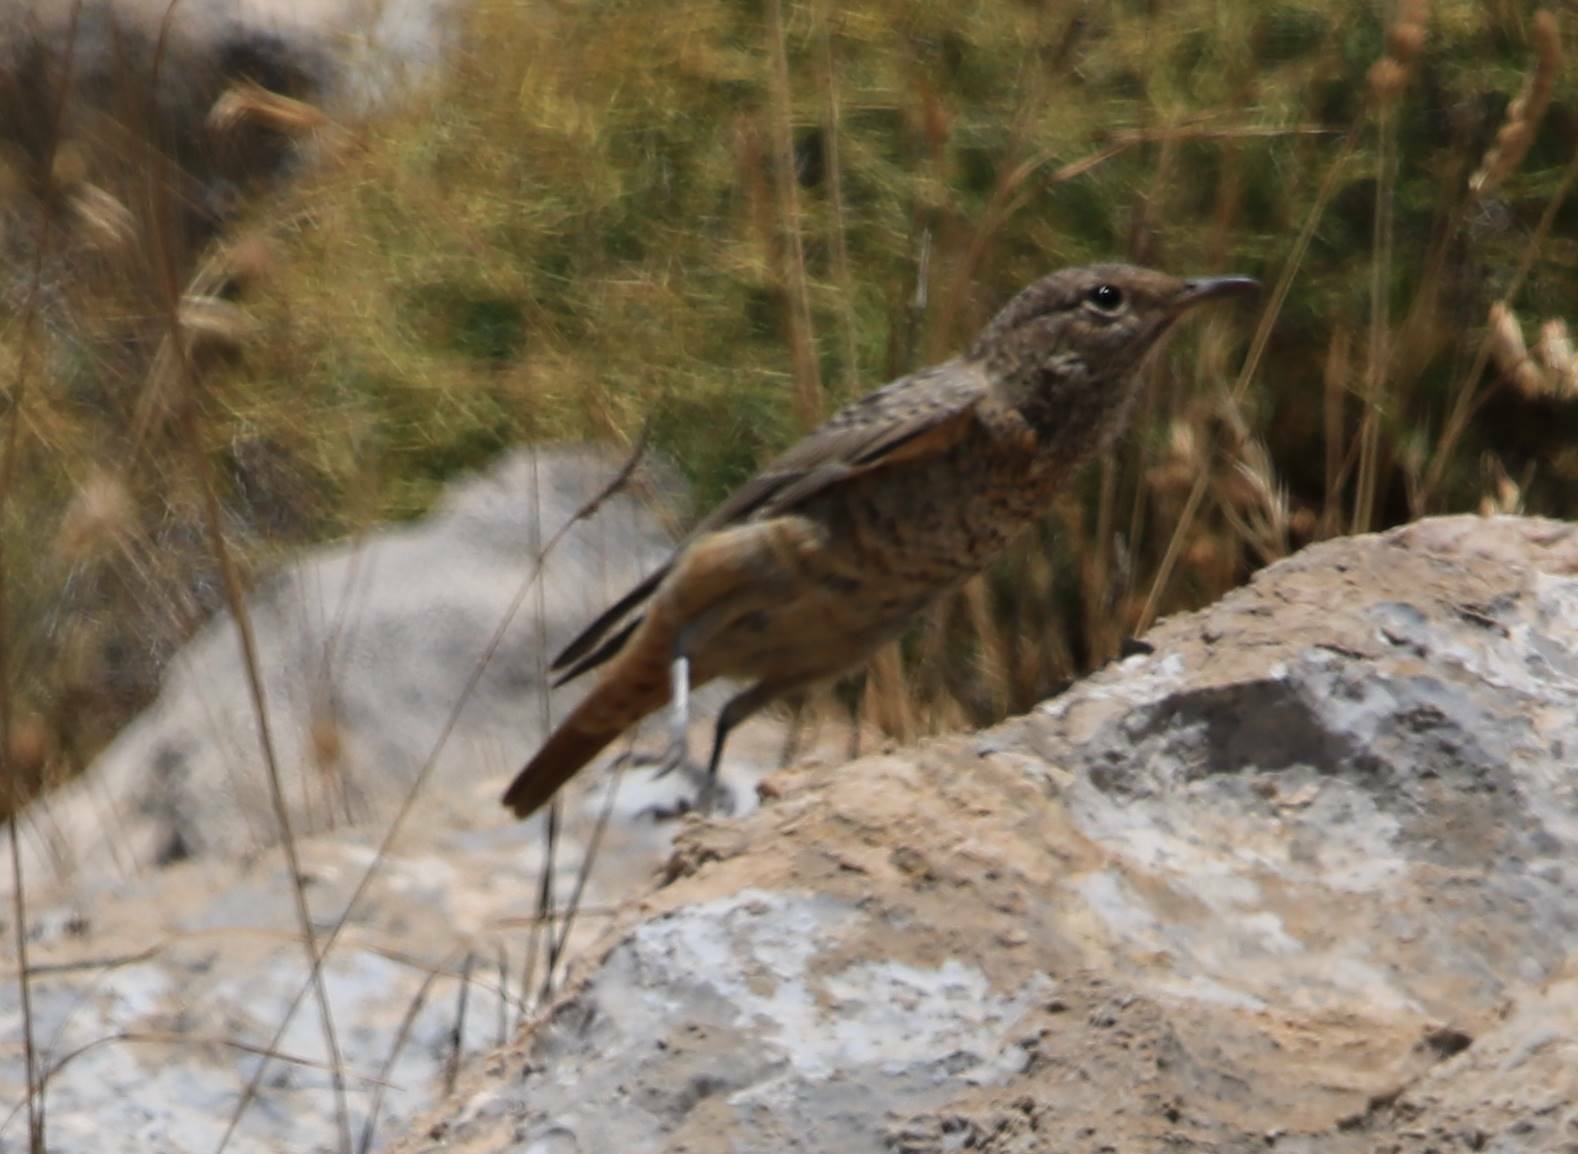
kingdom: Animalia
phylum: Chordata
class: Aves
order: Passeriformes
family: Muscicapidae
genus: Monticola
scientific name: Monticola saxatilis
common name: Rufous-tailed rock thrush
